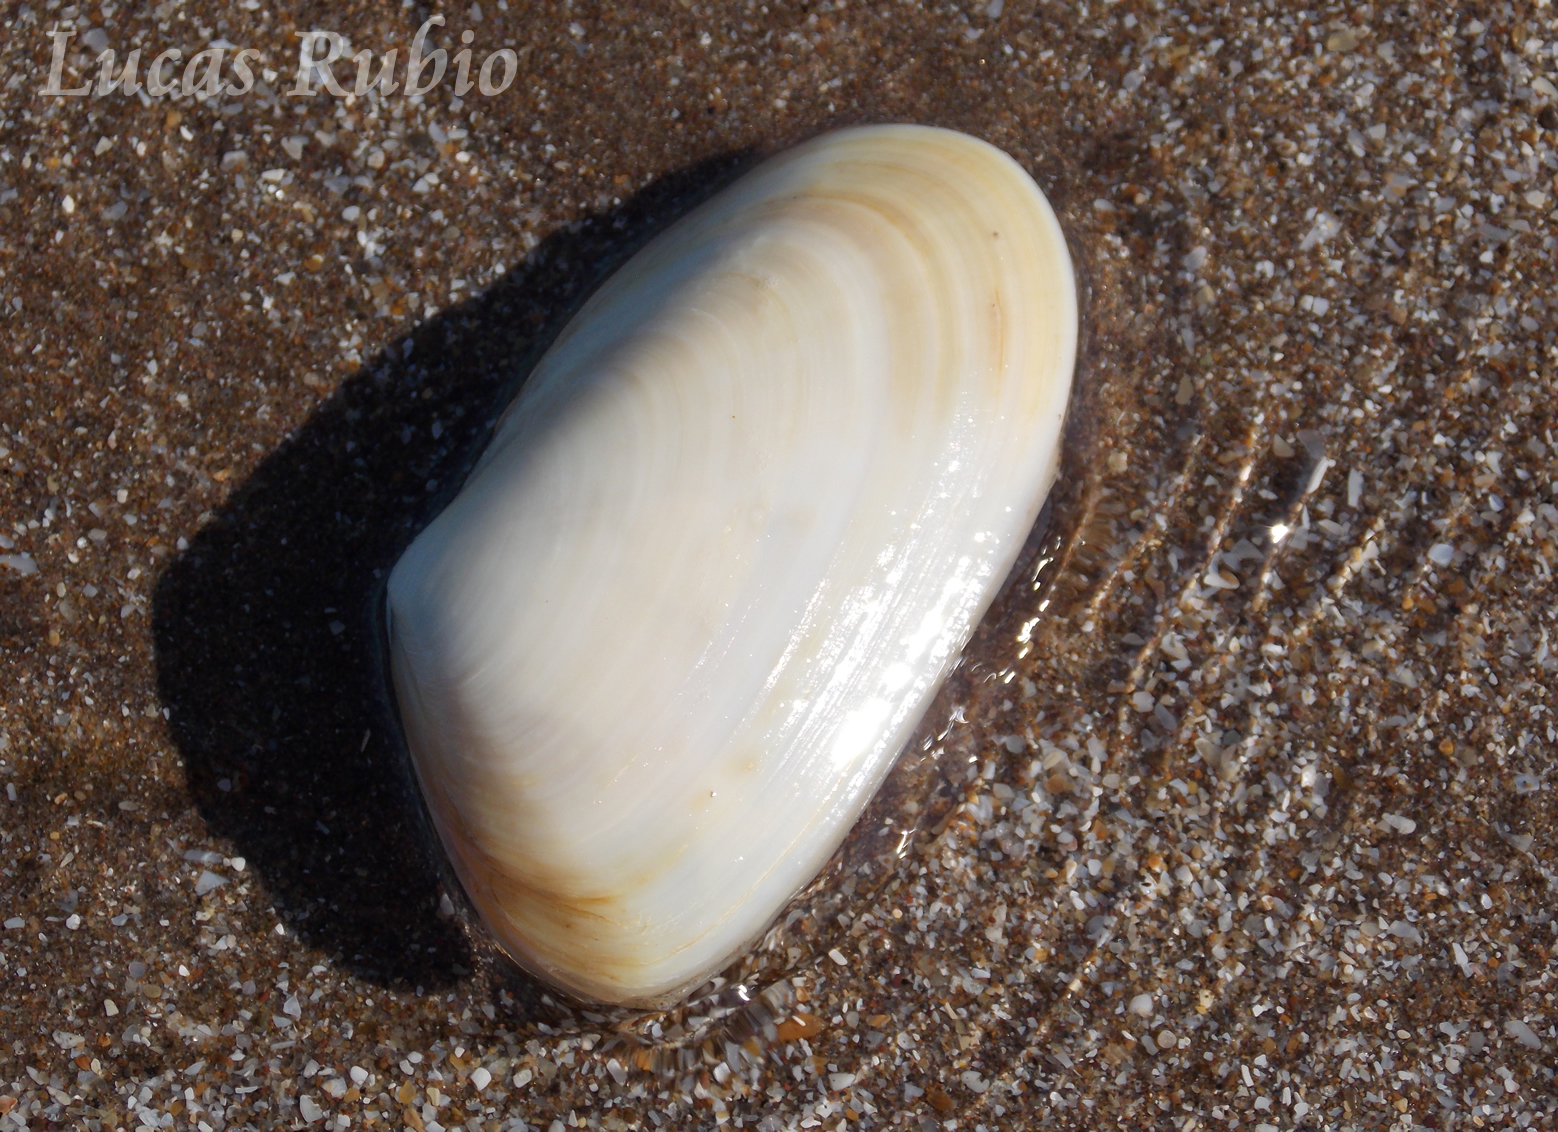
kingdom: Animalia
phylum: Mollusca
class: Bivalvia
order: Venerida
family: Mesodesmatidae
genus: Amarilladesma
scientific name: Amarilladesma mactroides
